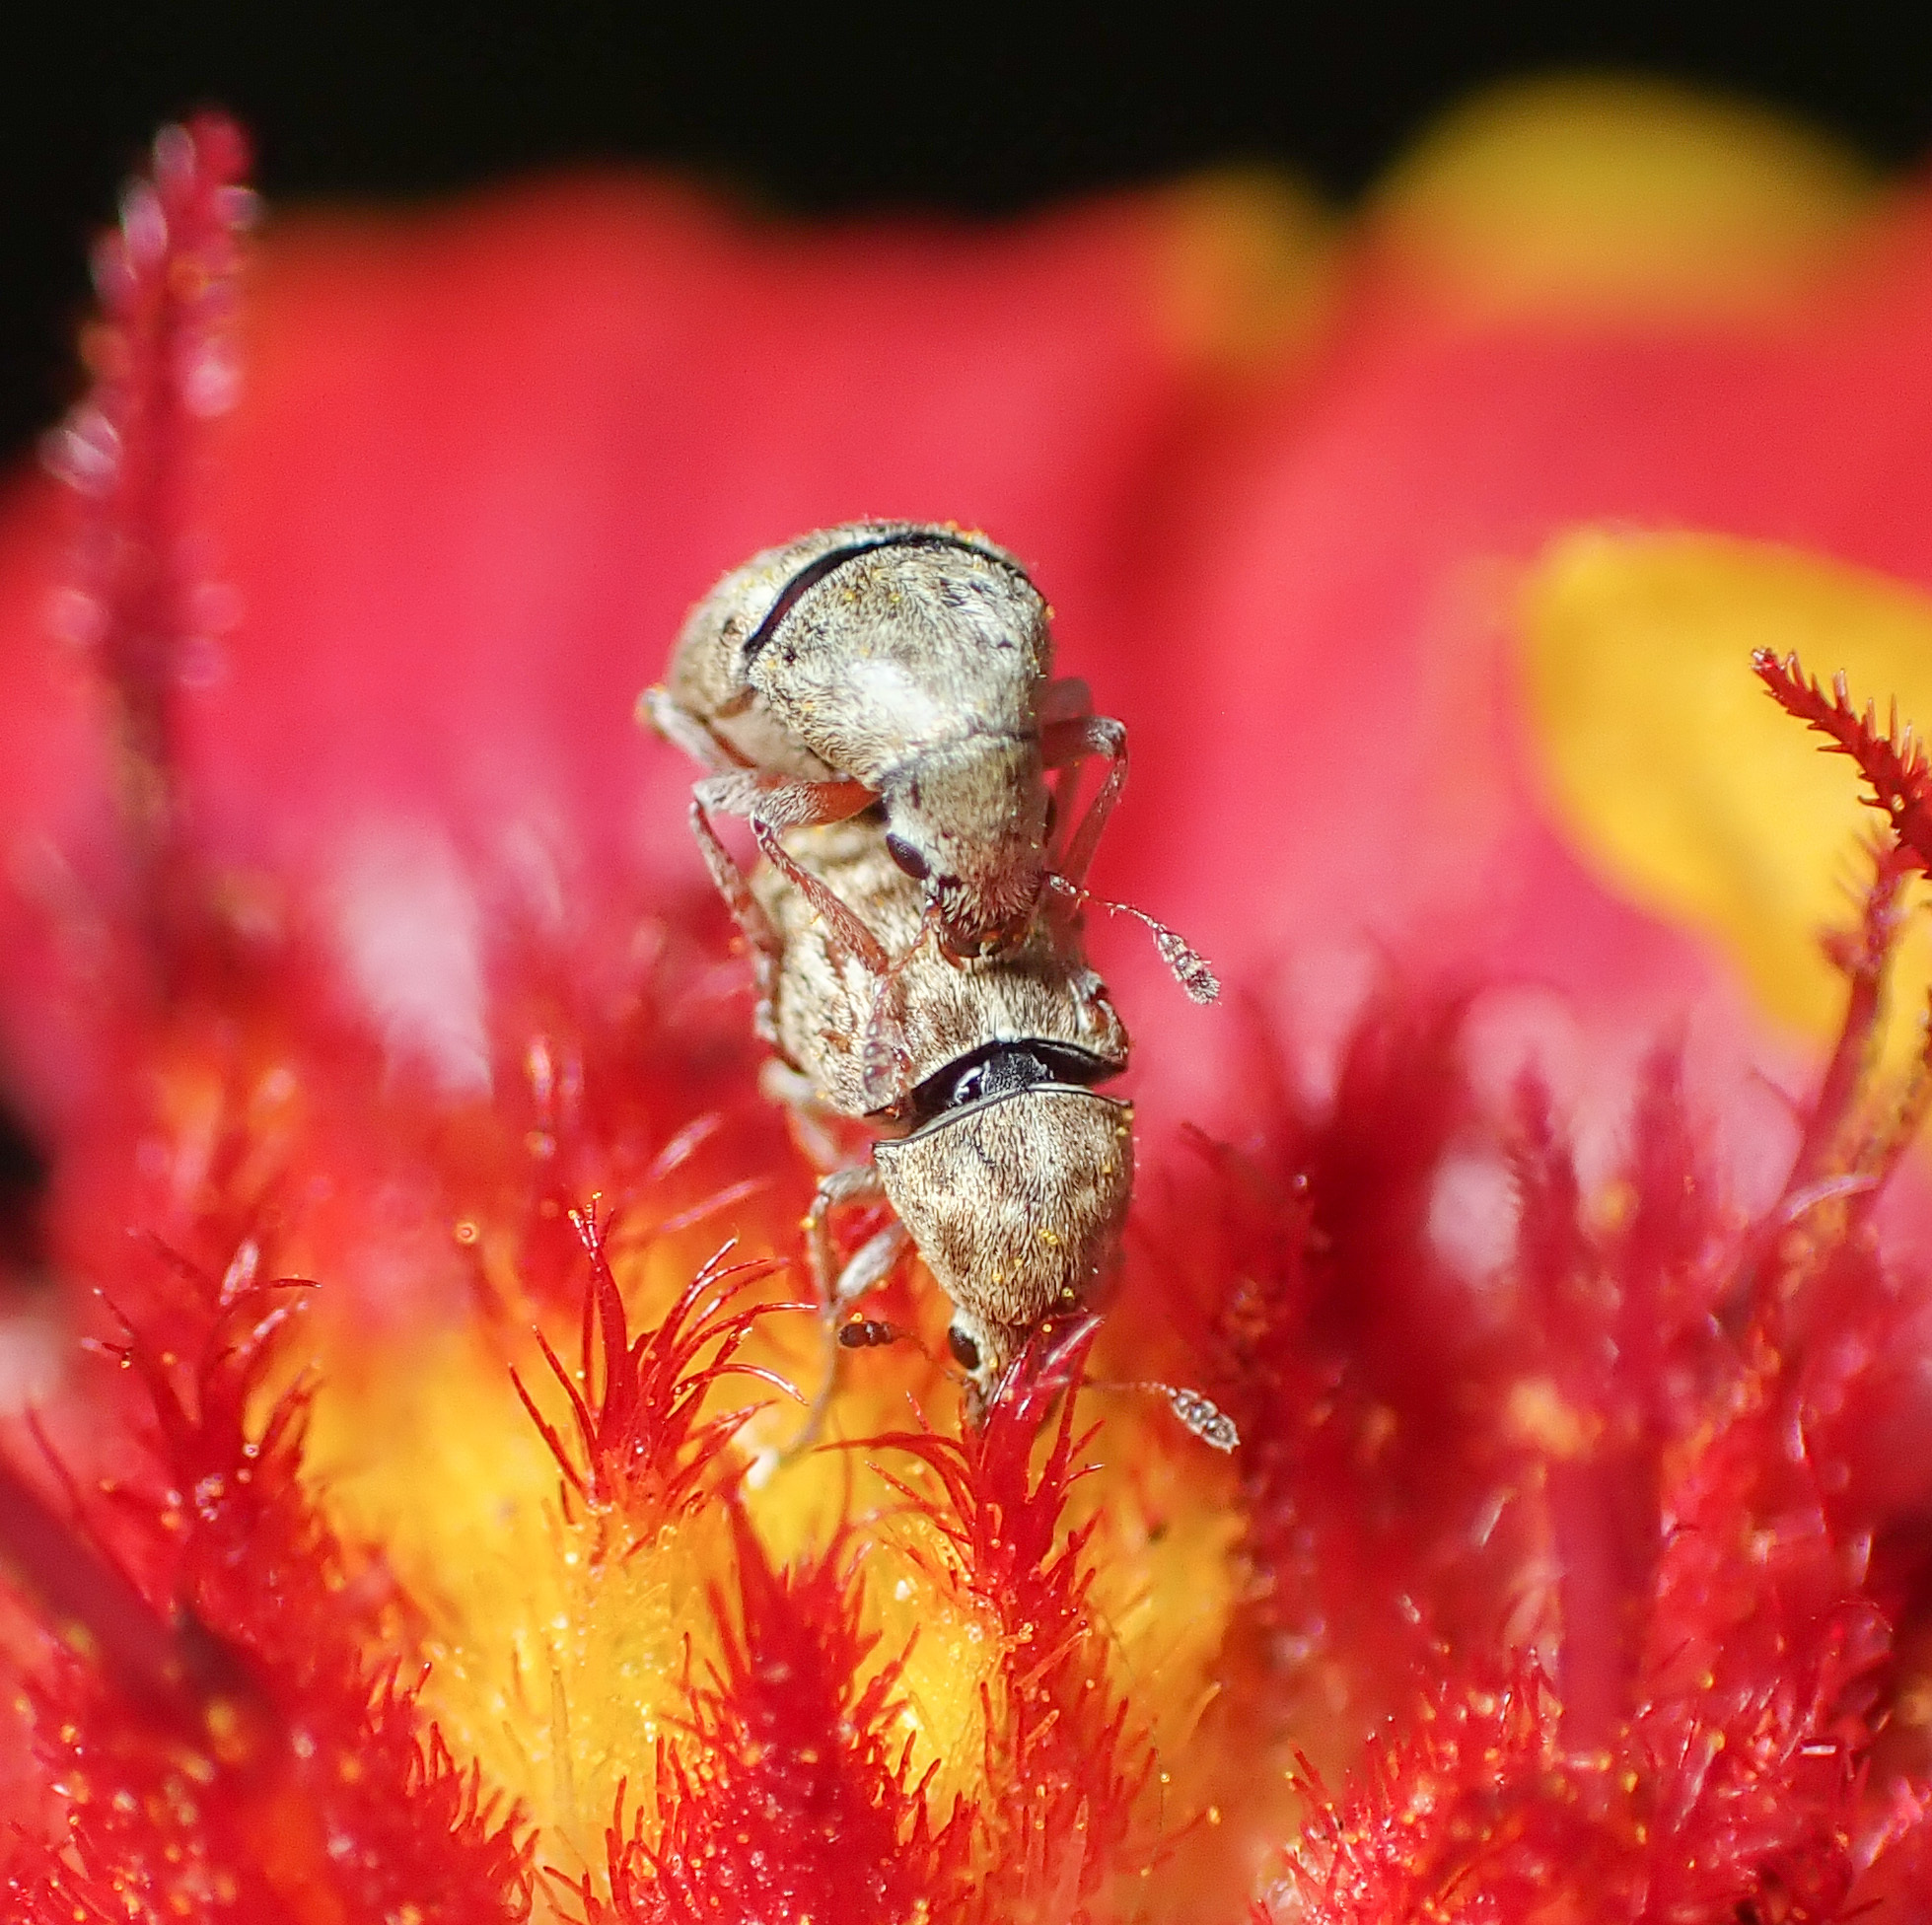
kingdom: Animalia
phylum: Arthropoda
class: Insecta
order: Coleoptera
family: Anthribidae
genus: Trigonorhinus
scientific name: Trigonorhinus limbatus
